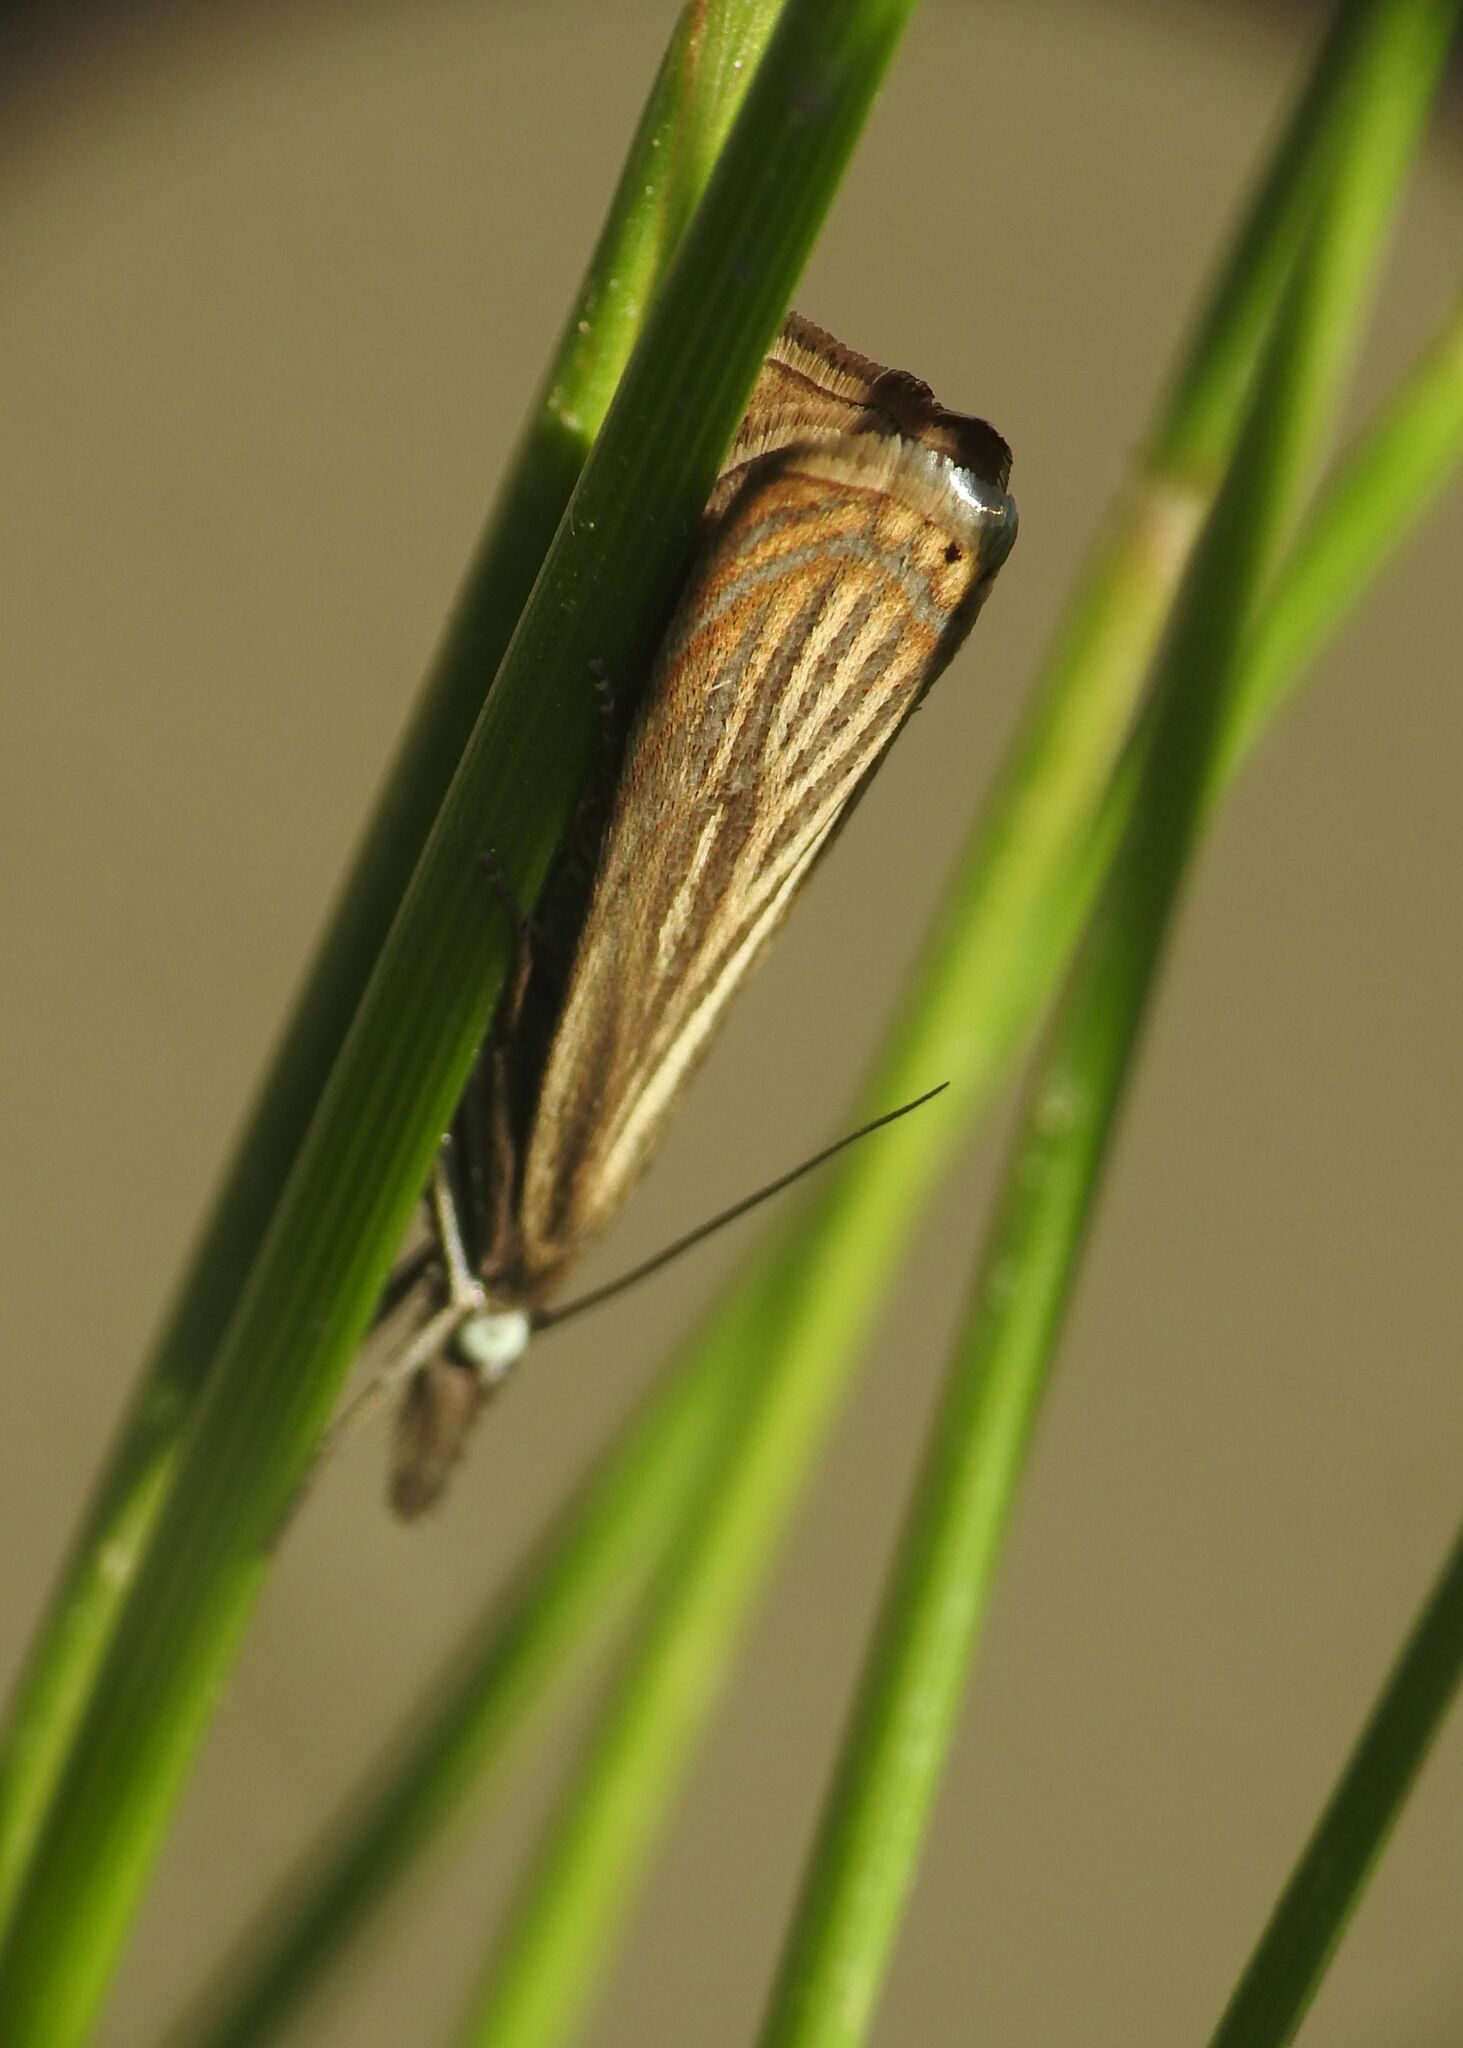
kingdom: Animalia
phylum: Arthropoda
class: Insecta
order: Lepidoptera
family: Crambidae
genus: Chrysoteuchia
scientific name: Chrysoteuchia culmella
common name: Garden grass-veneer
